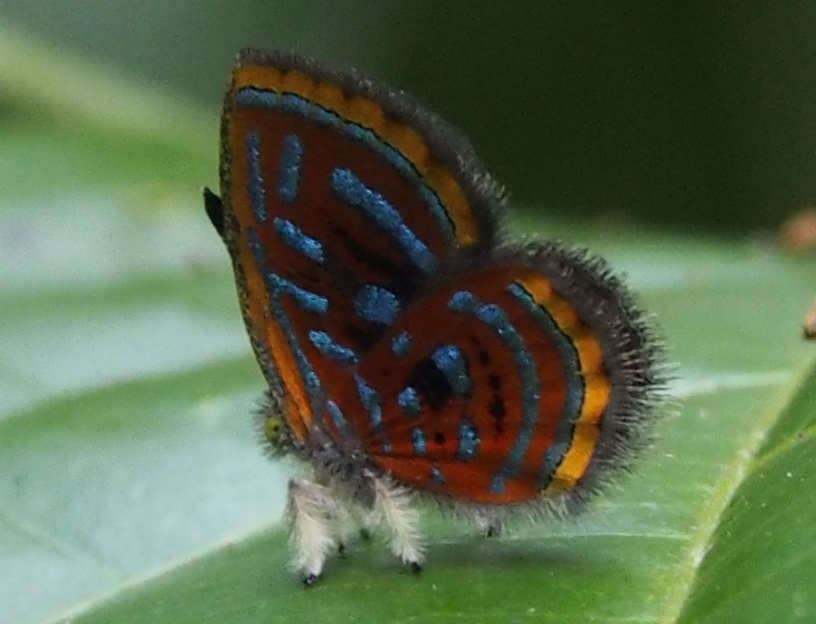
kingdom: Animalia
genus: Charis
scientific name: Charis Sarota acantus
